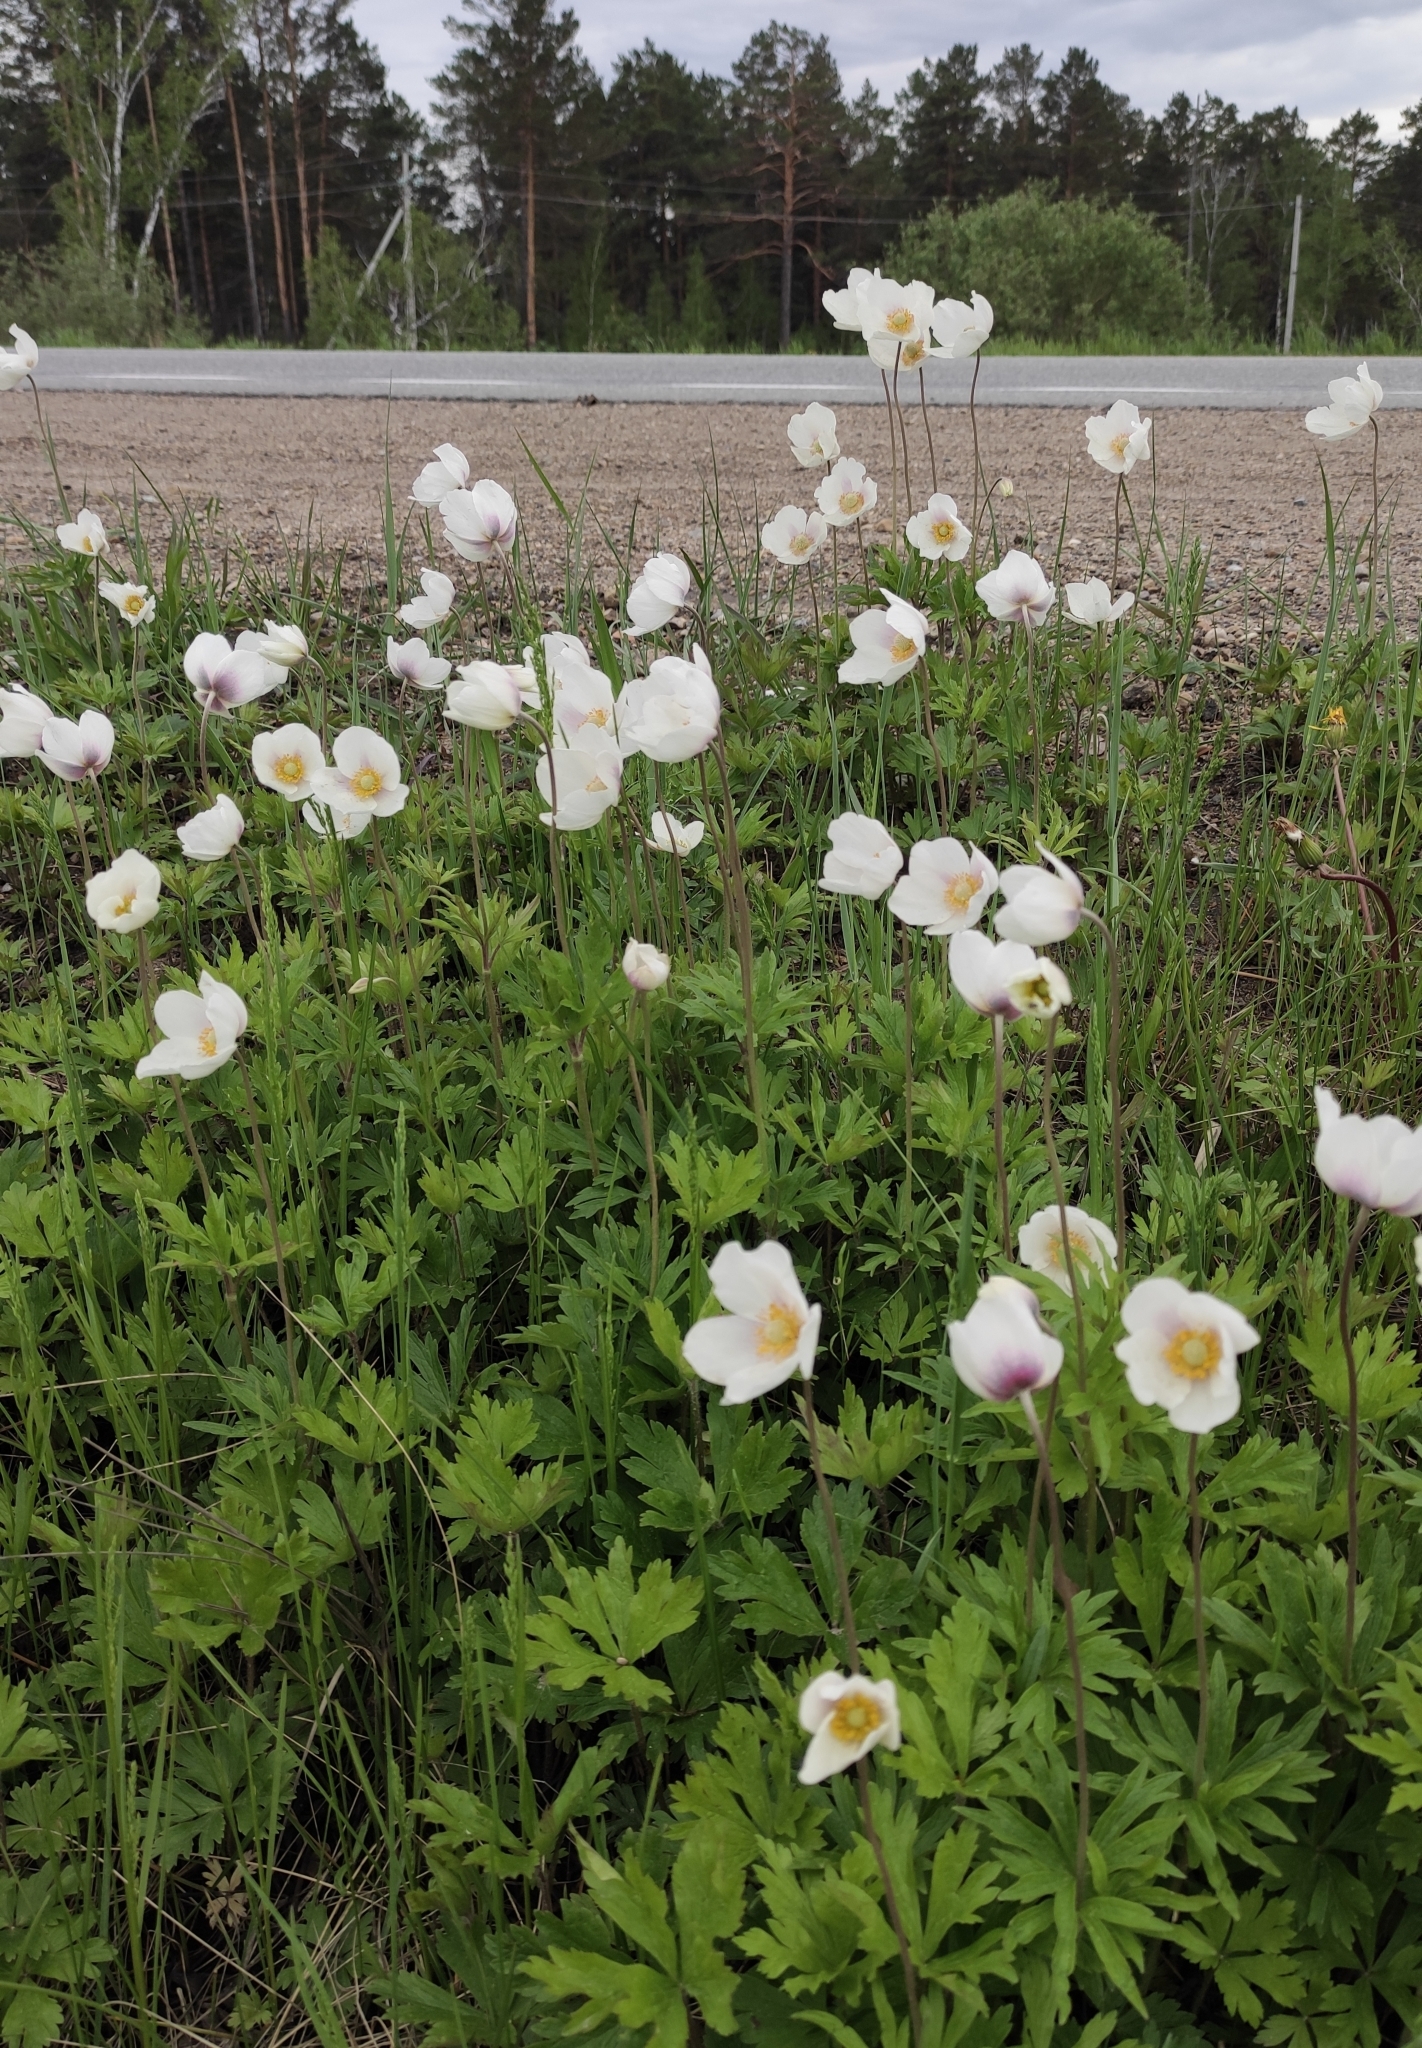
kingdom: Plantae
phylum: Tracheophyta
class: Magnoliopsida
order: Ranunculales
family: Ranunculaceae
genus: Anemone
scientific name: Anemone sylvestris
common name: Snowdrop anemone
